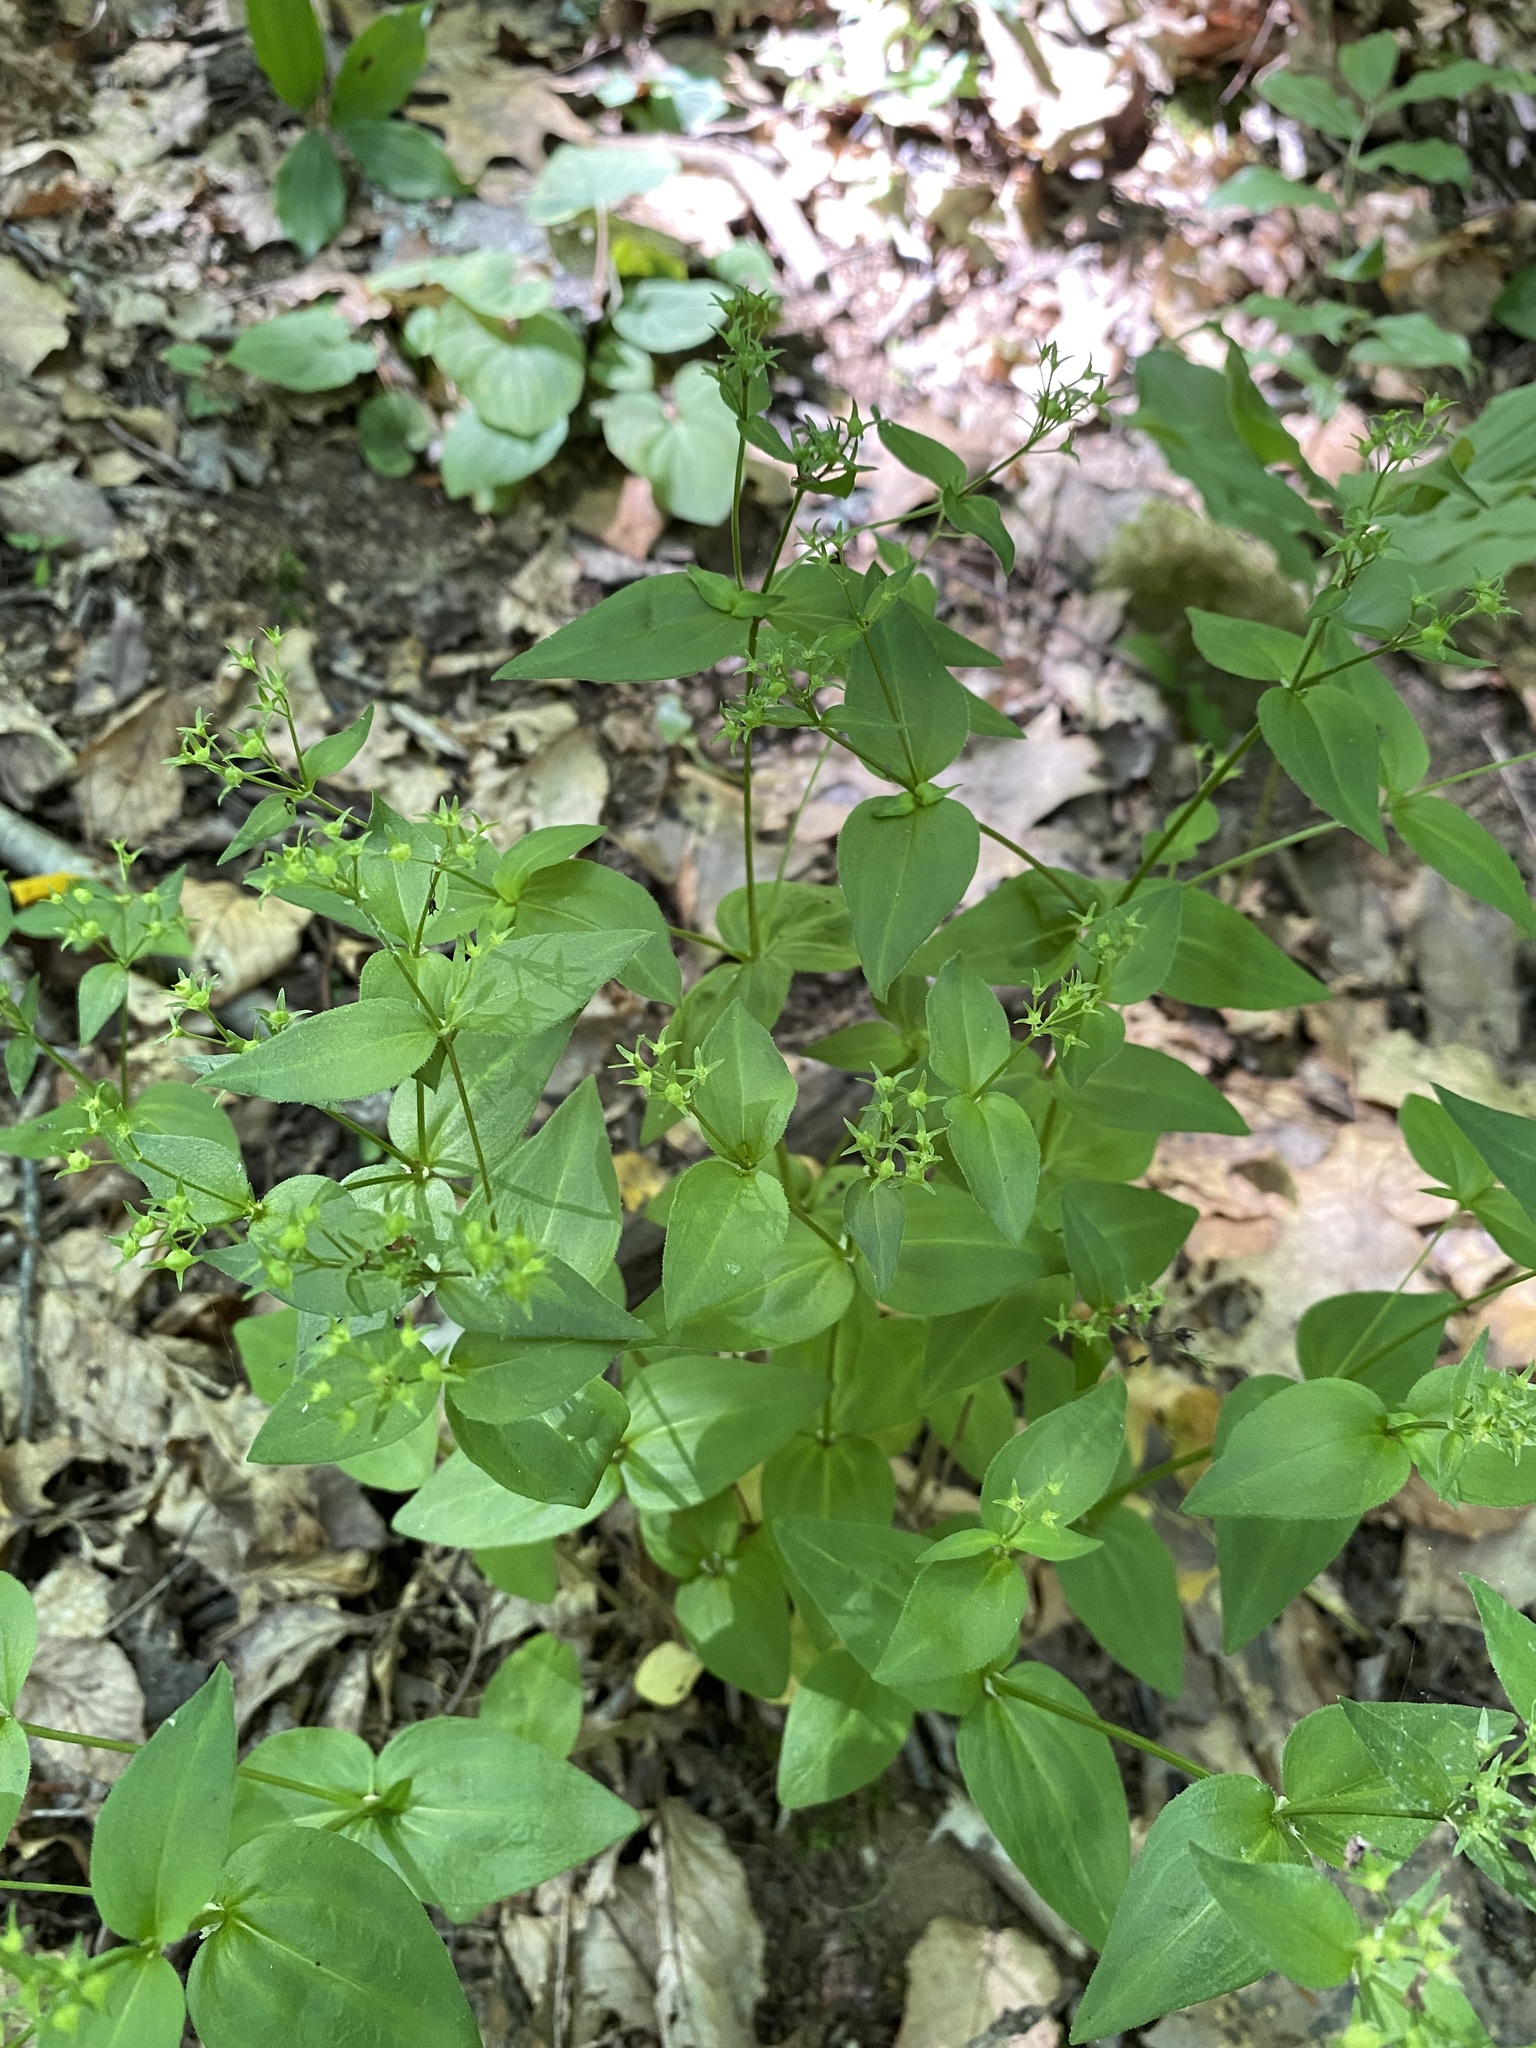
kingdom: Plantae
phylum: Tracheophyta
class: Magnoliopsida
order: Gentianales
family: Rubiaceae
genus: Houstonia
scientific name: Houstonia purpurea
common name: Summer bluet
